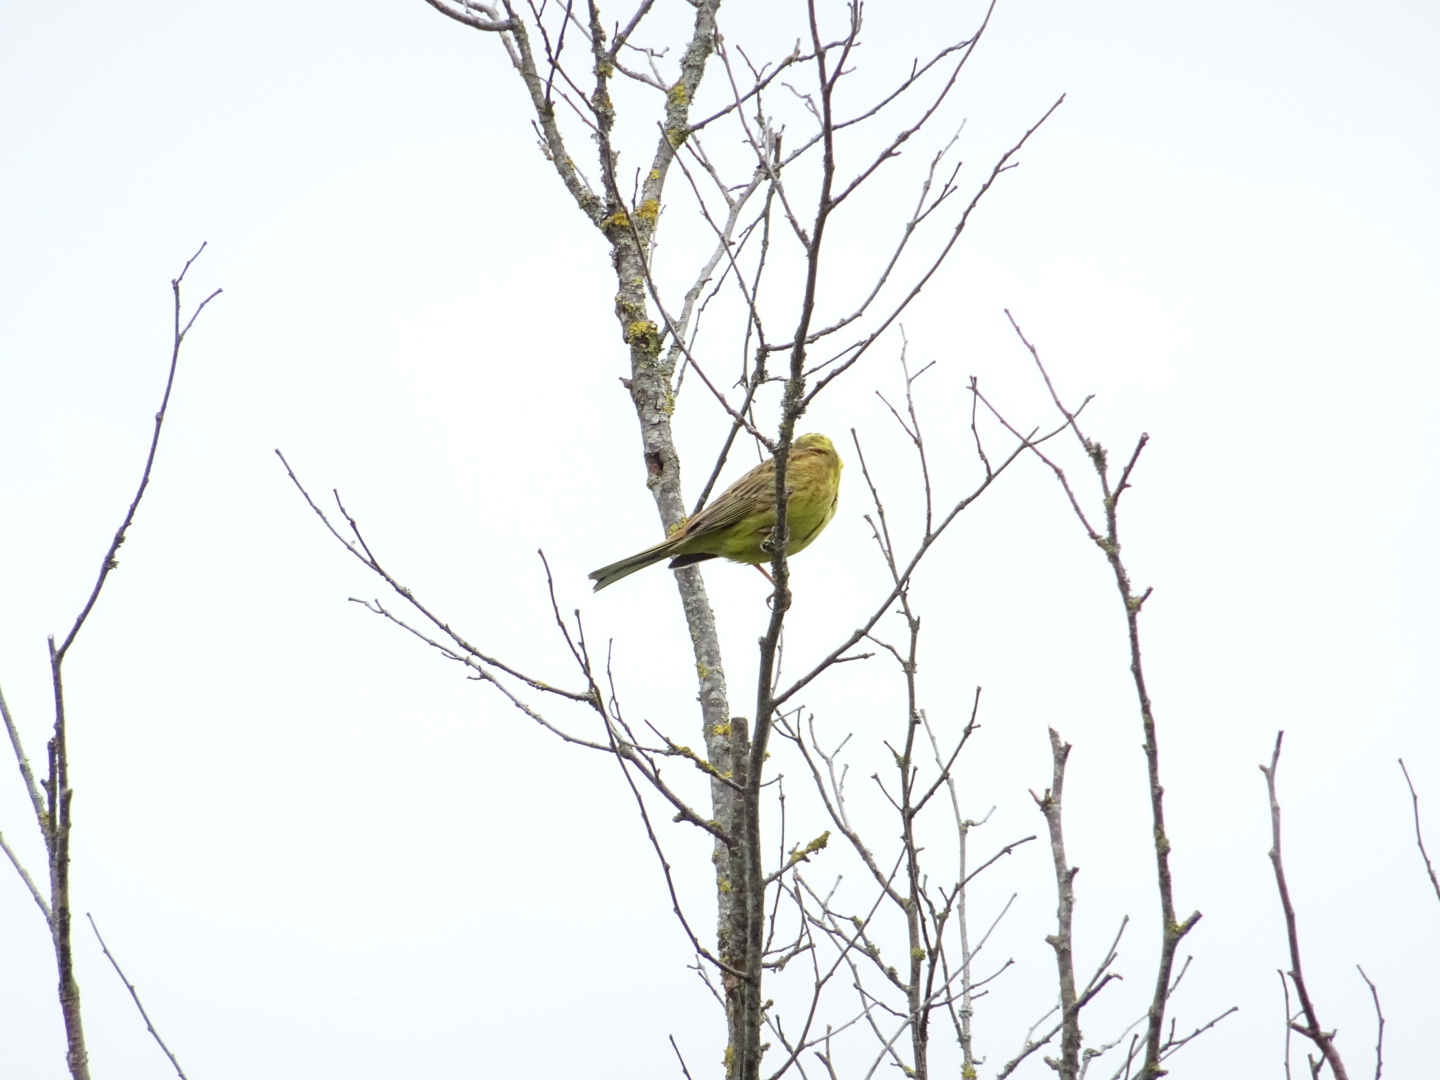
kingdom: Animalia
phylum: Chordata
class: Aves
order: Passeriformes
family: Emberizidae
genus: Emberiza
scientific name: Emberiza citrinella
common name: Yellowhammer
